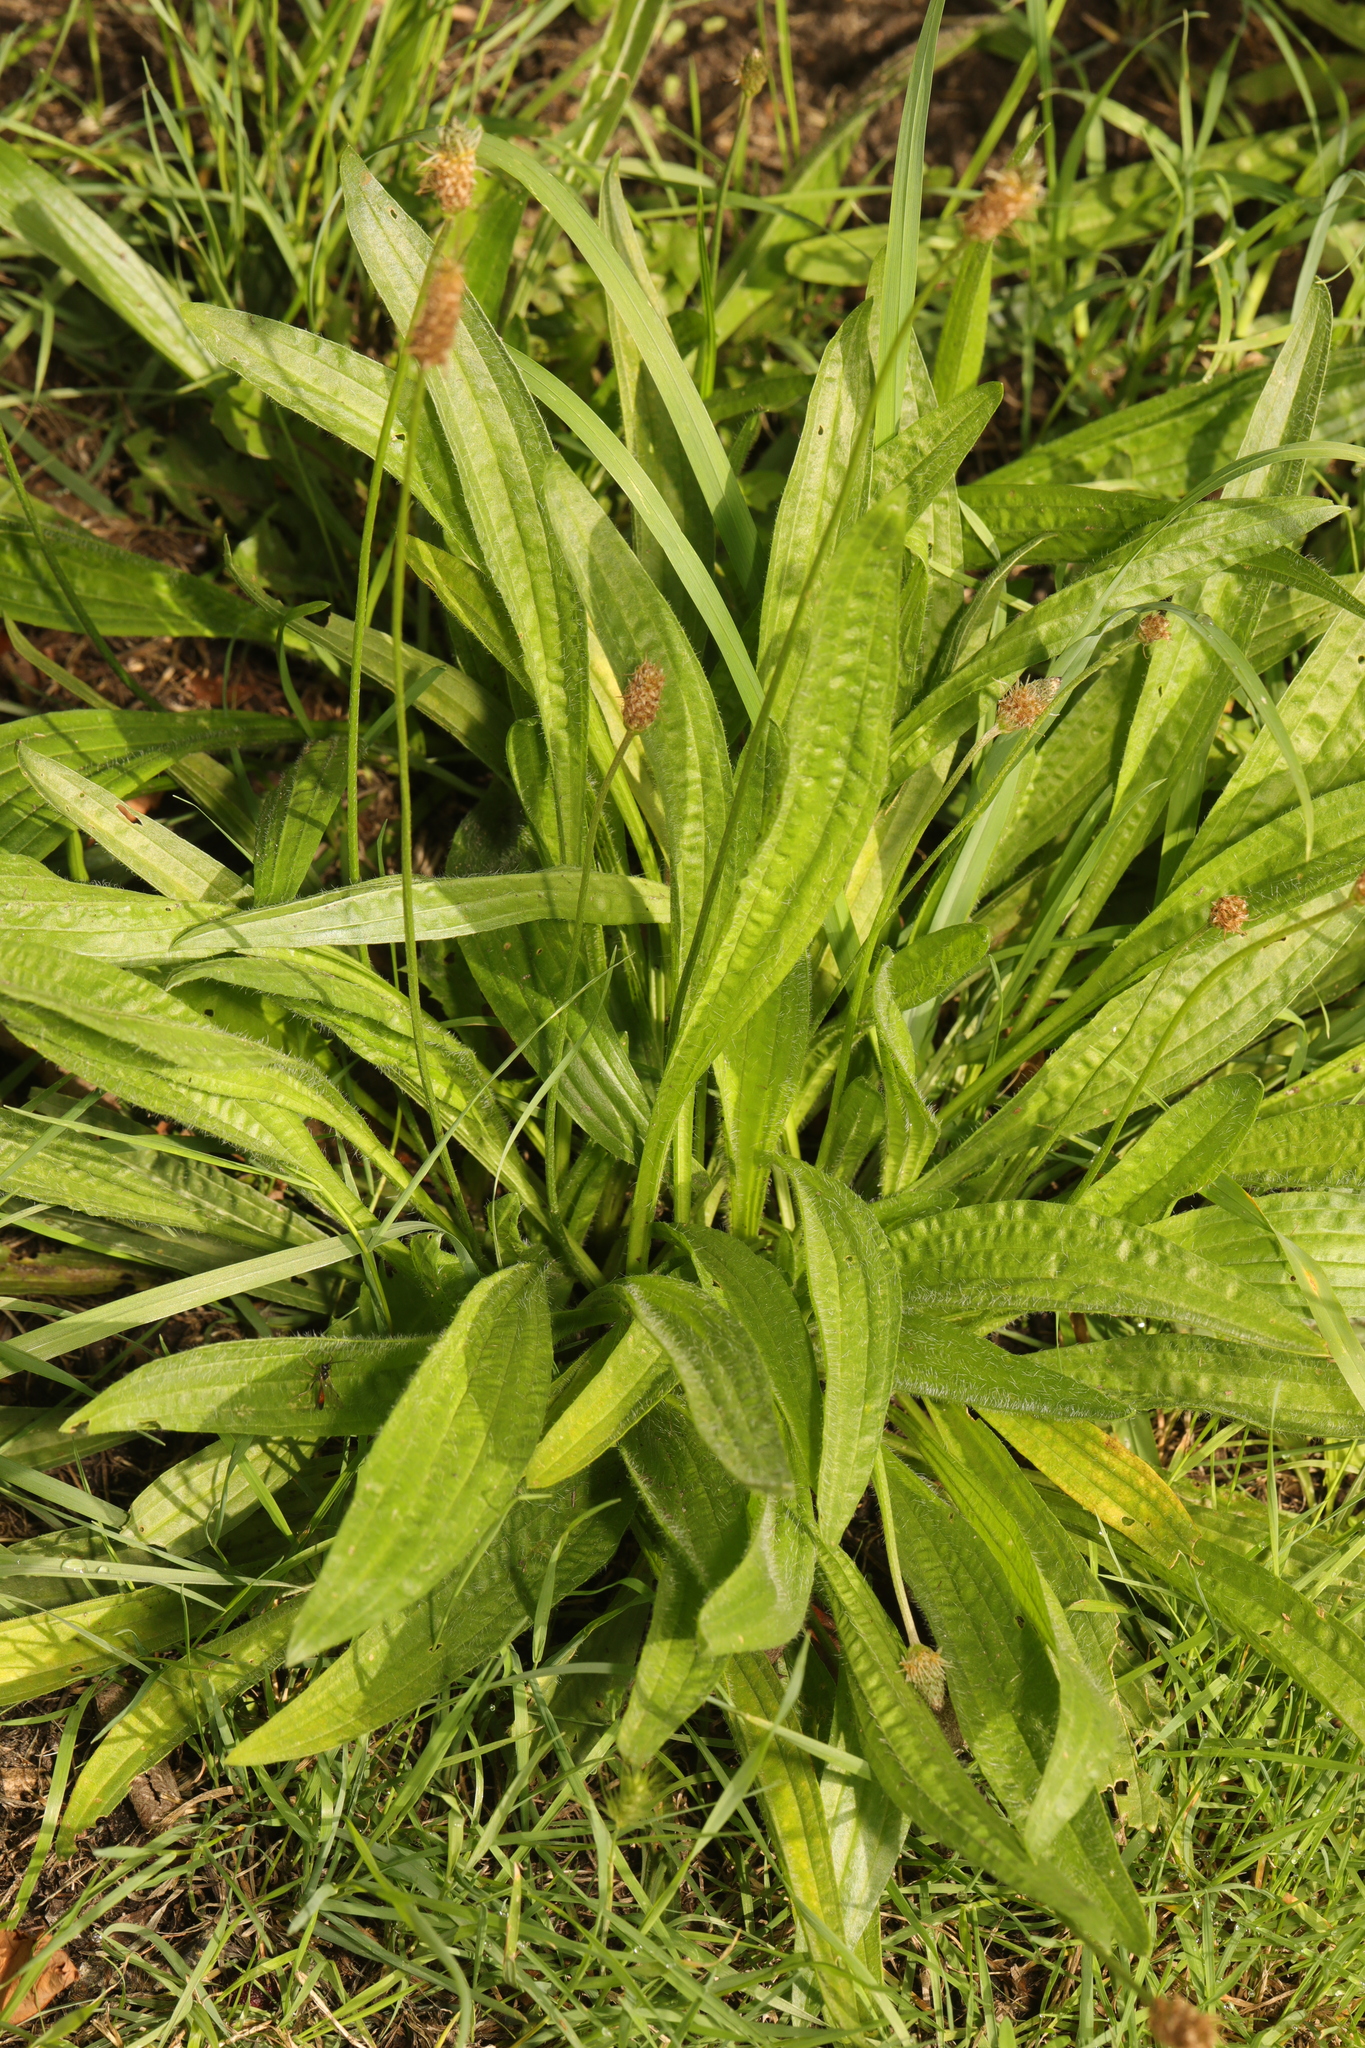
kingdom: Plantae
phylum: Tracheophyta
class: Magnoliopsida
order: Lamiales
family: Plantaginaceae
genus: Plantago
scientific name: Plantago lanceolata
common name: Ribwort plantain
